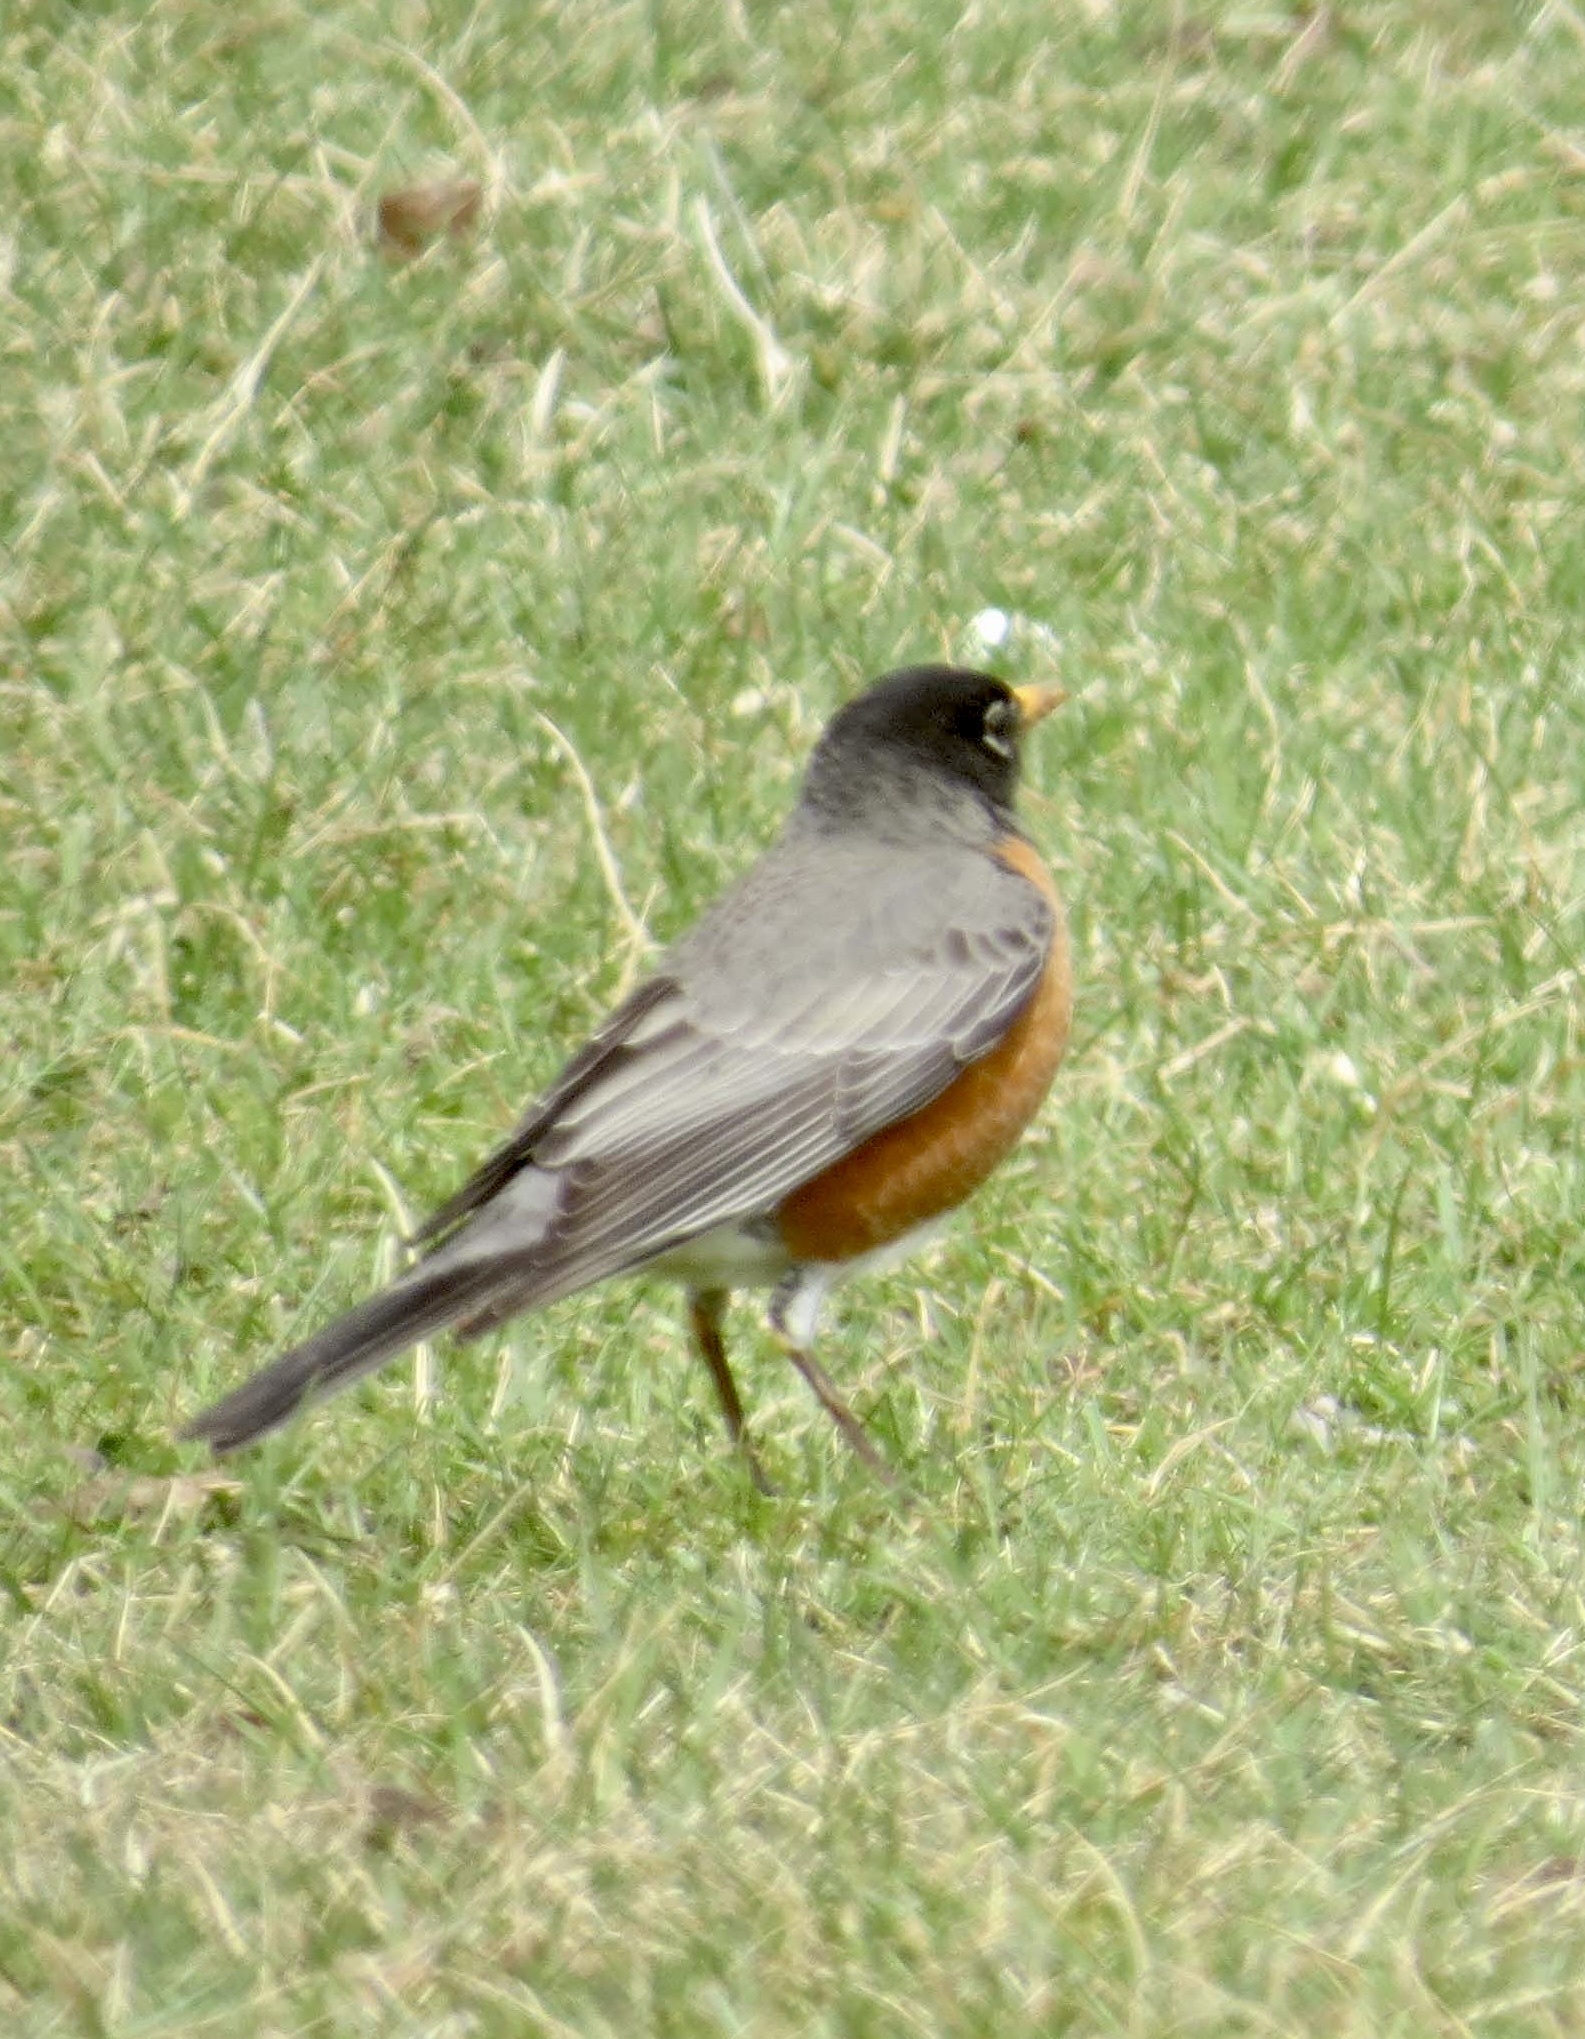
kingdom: Animalia
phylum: Chordata
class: Aves
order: Passeriformes
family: Turdidae
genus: Turdus
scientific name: Turdus migratorius
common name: American robin
